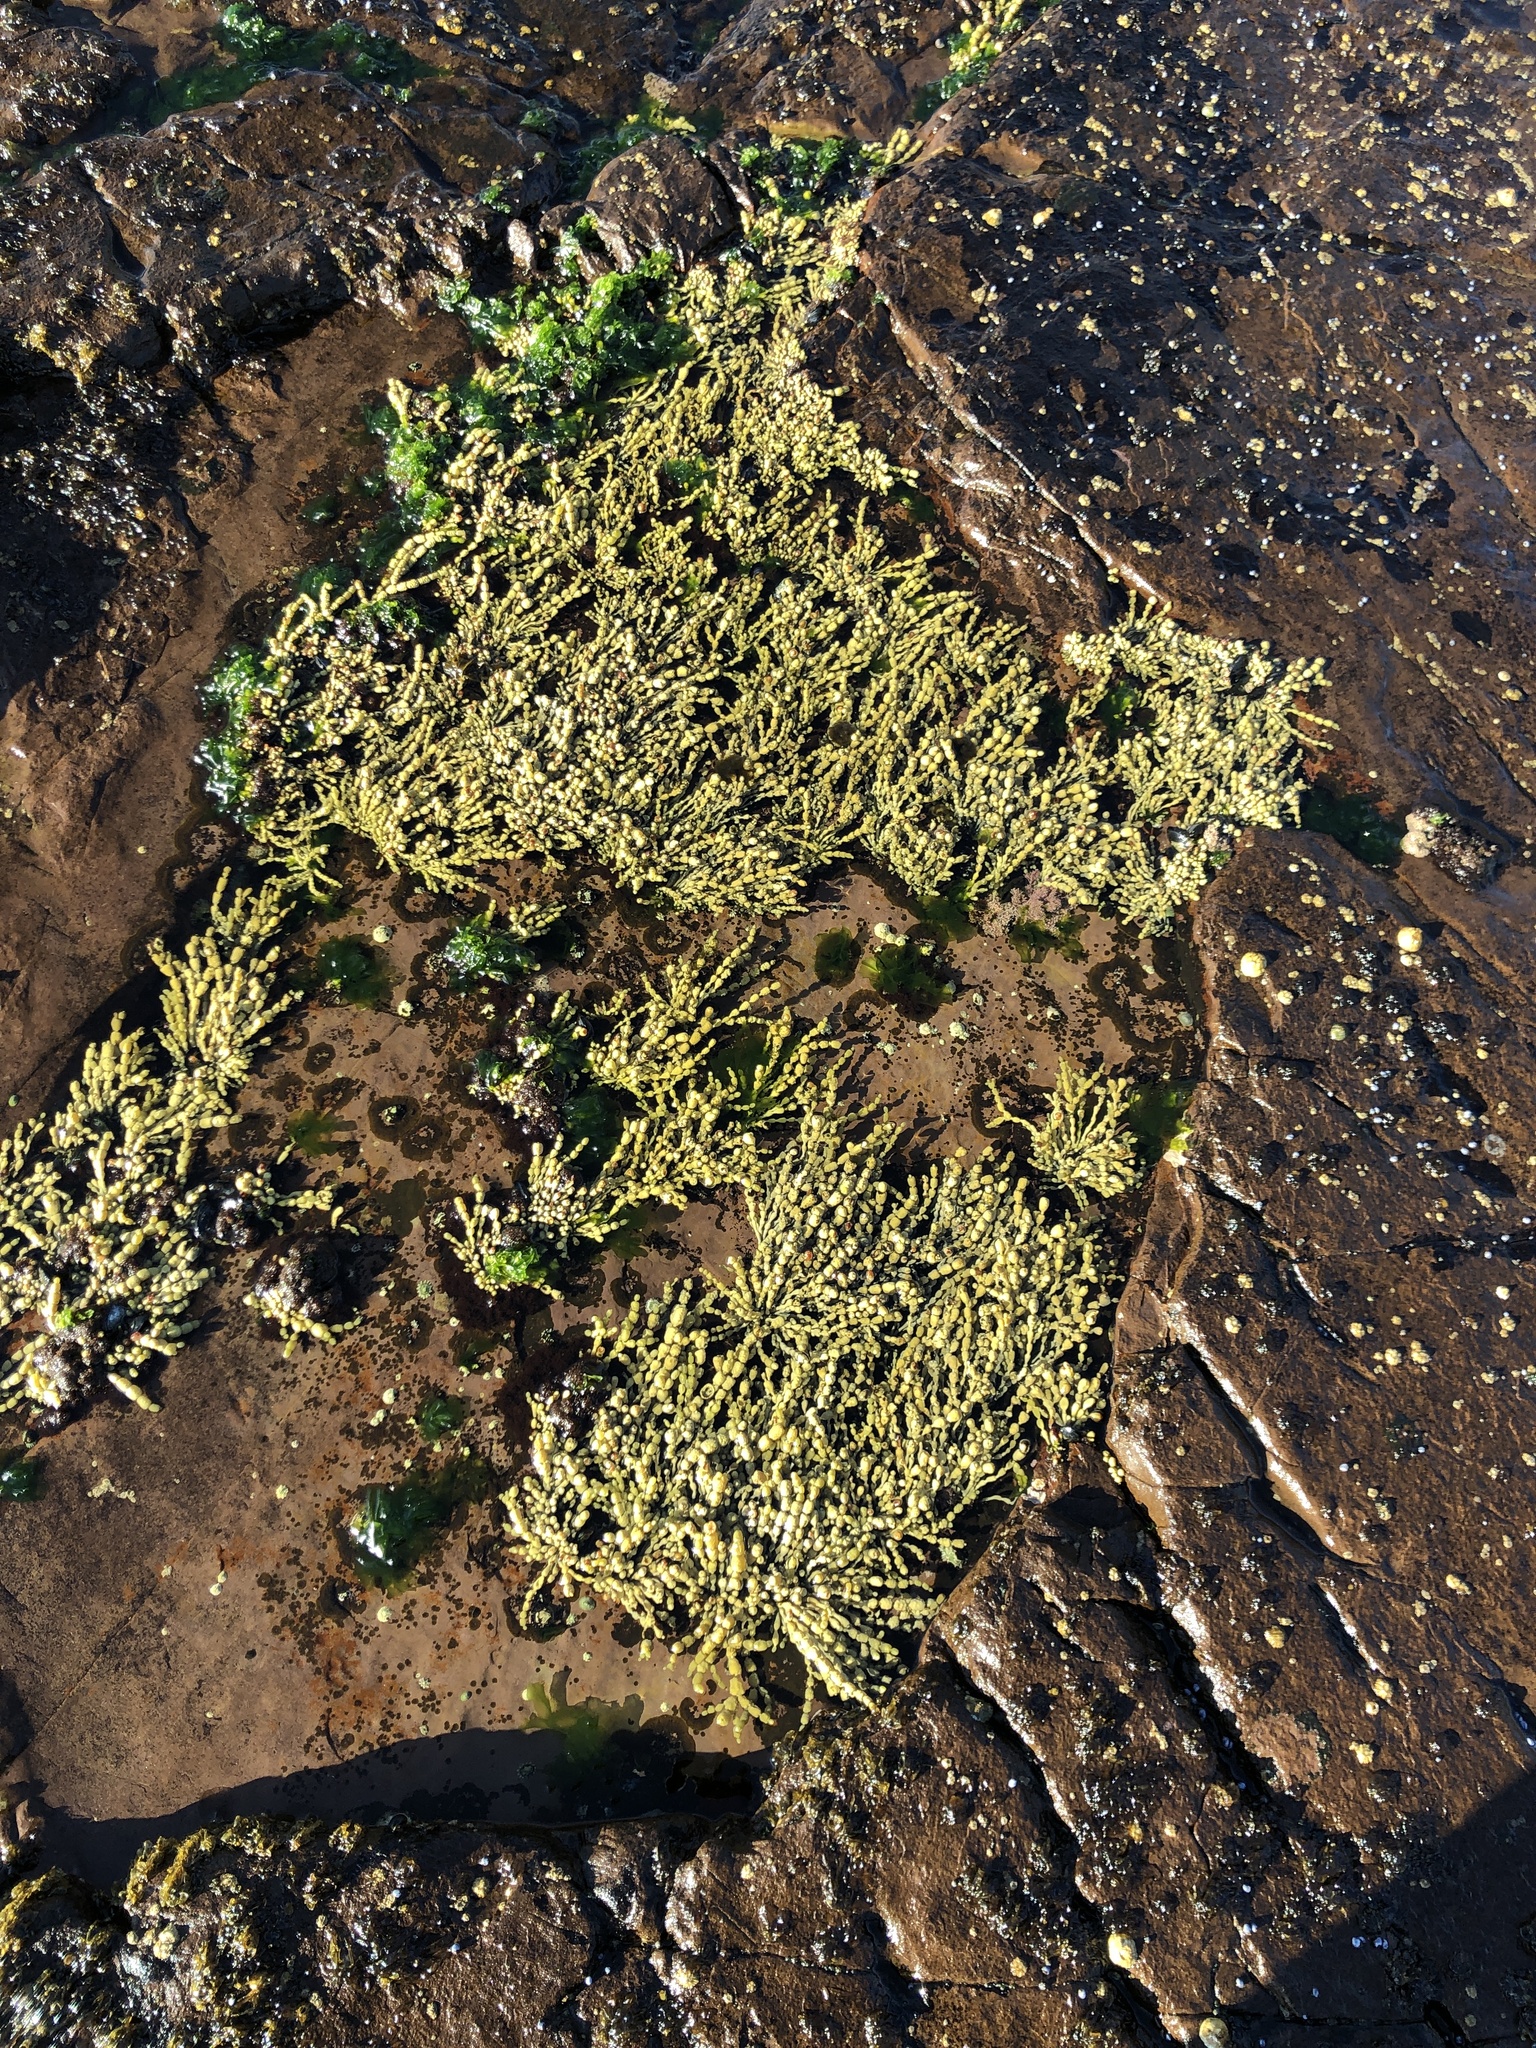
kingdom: Chromista
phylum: Ochrophyta
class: Phaeophyceae
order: Fucales
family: Hormosiraceae
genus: Hormosira
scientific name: Hormosira banksii
